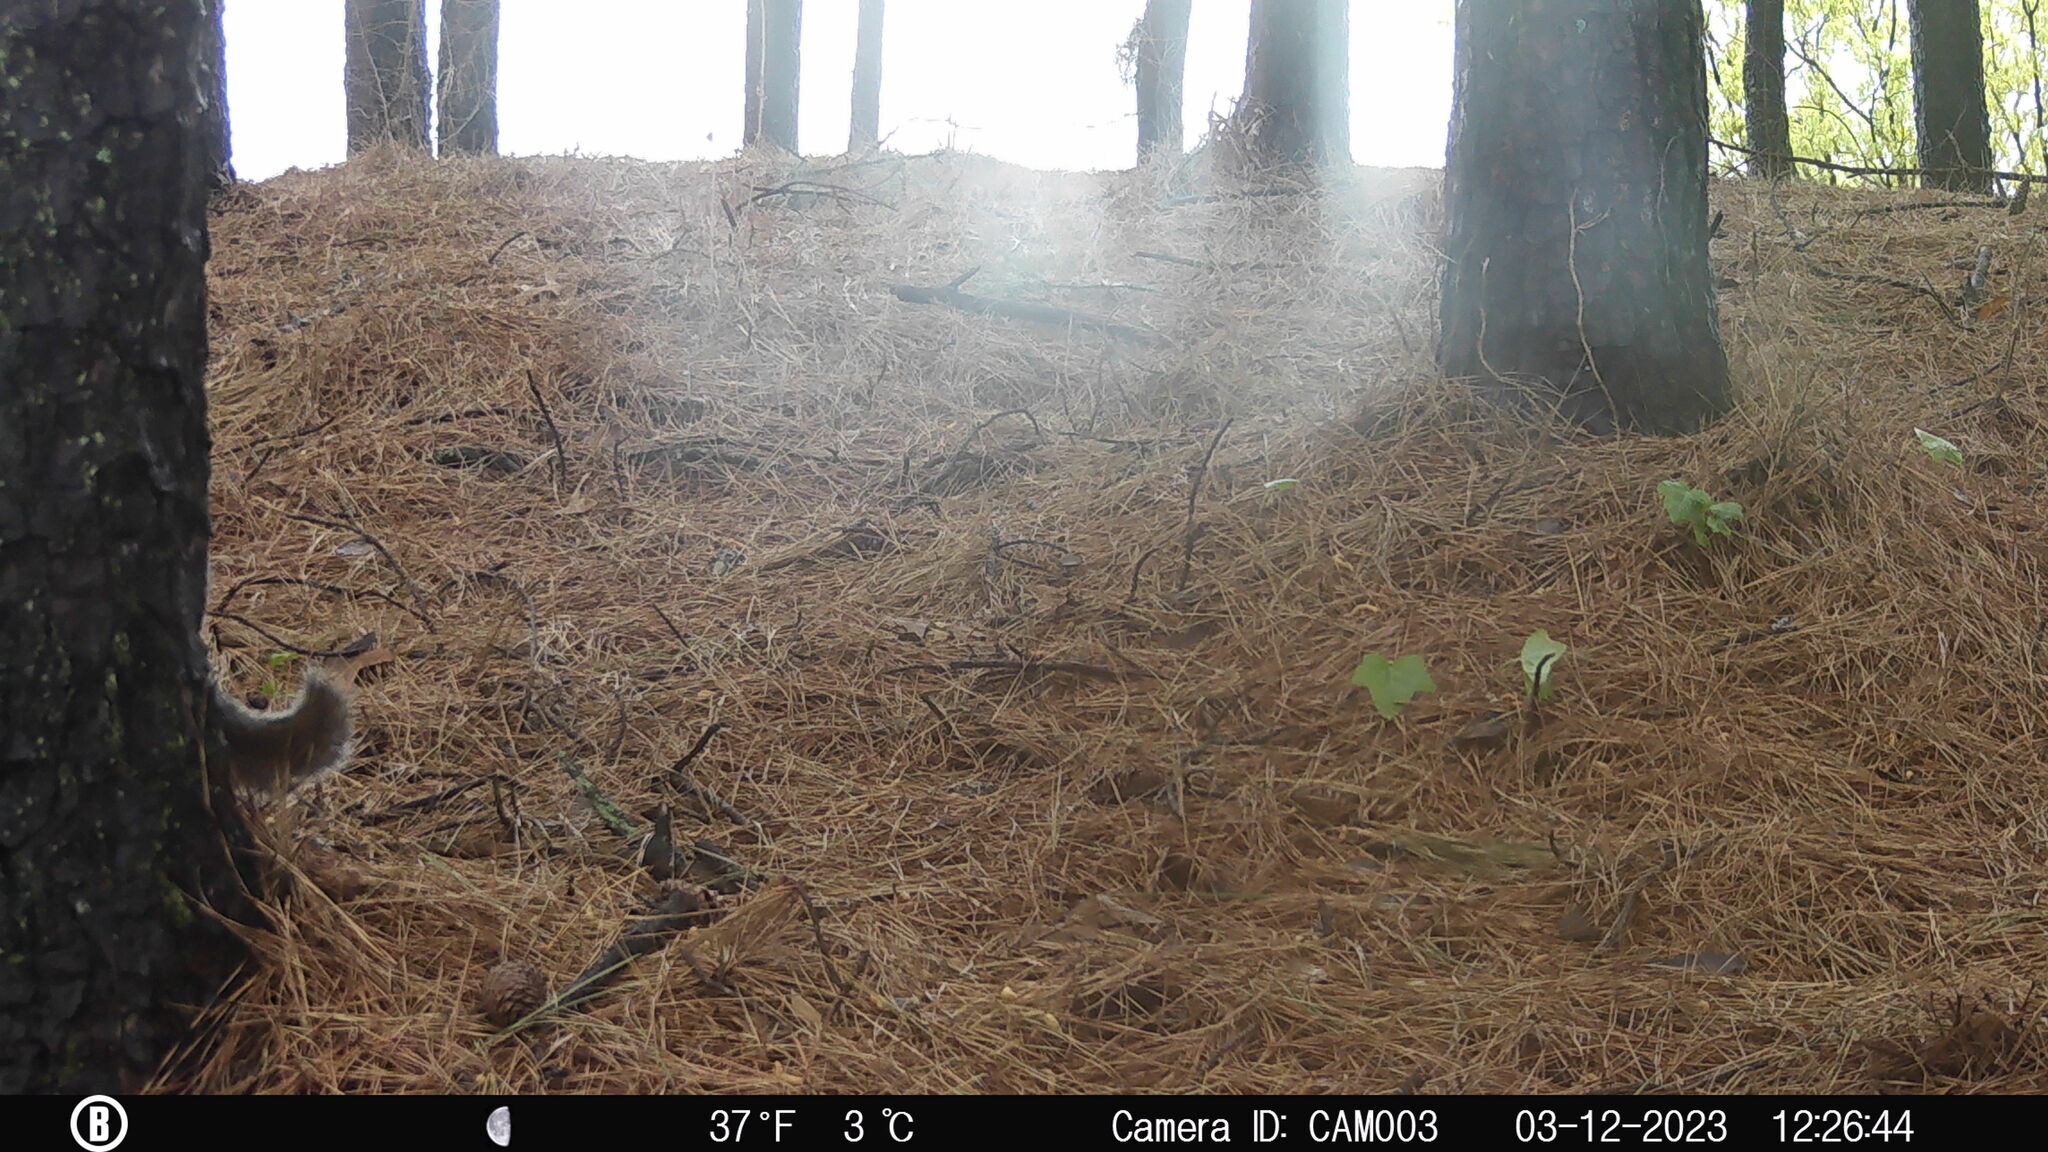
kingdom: Animalia
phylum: Chordata
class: Mammalia
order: Rodentia
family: Sciuridae
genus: Sciurus
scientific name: Sciurus carolinensis
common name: Eastern gray squirrel
